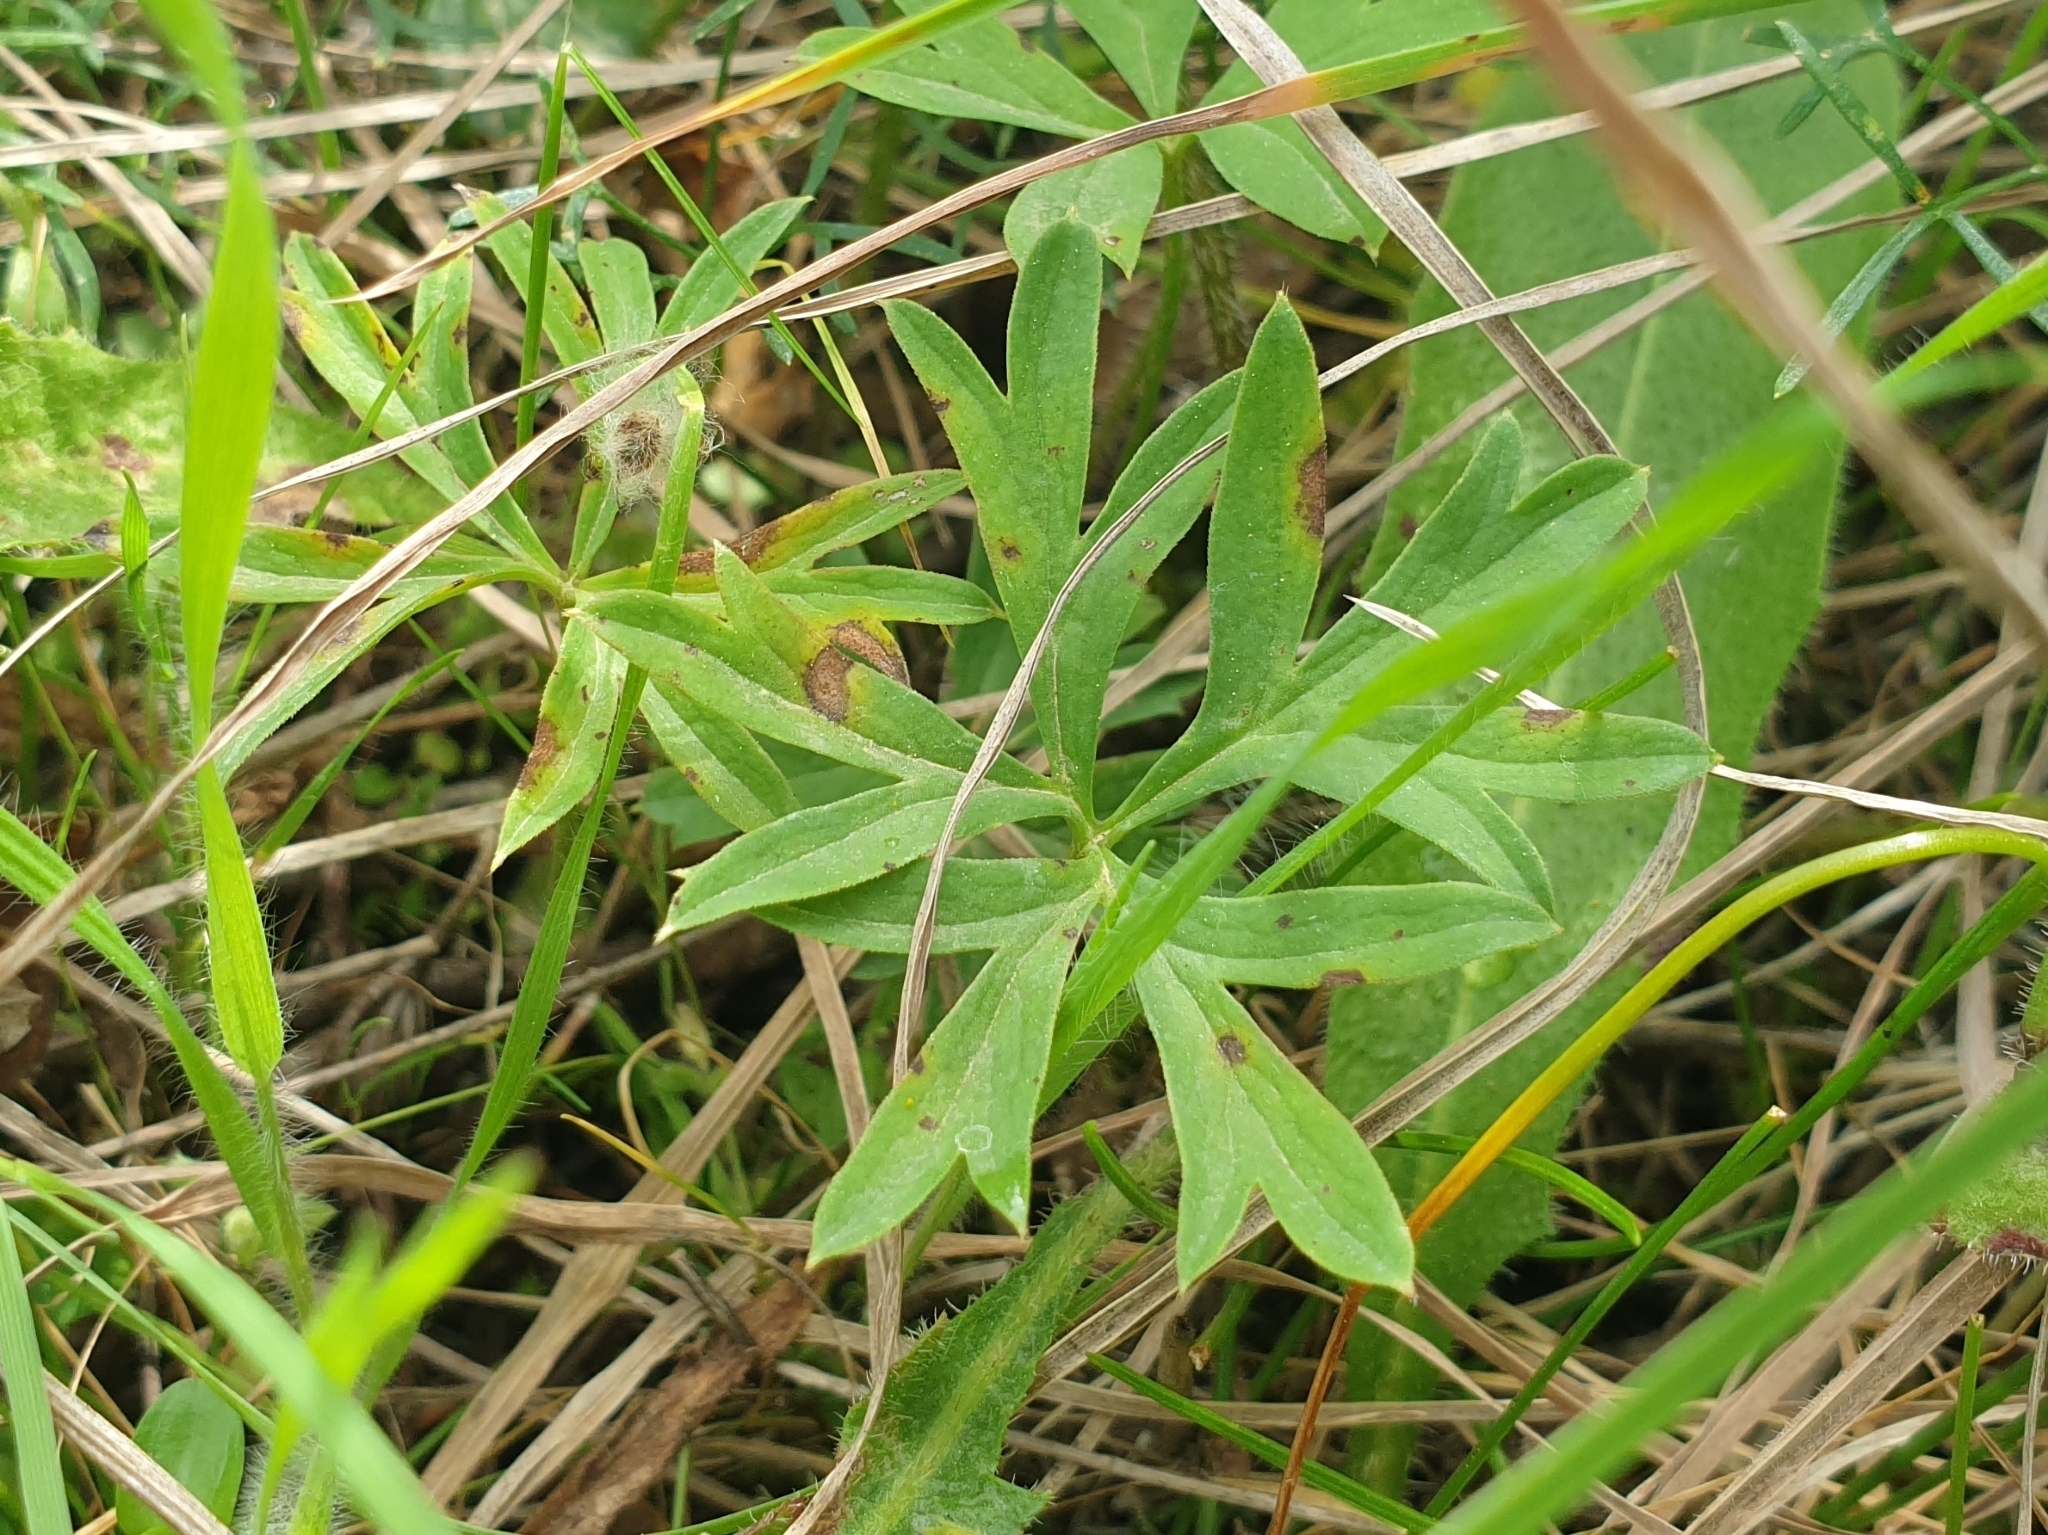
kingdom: Plantae
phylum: Tracheophyta
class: Magnoliopsida
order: Ranunculales
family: Ranunculaceae
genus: Anemone
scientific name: Anemone hortensis
